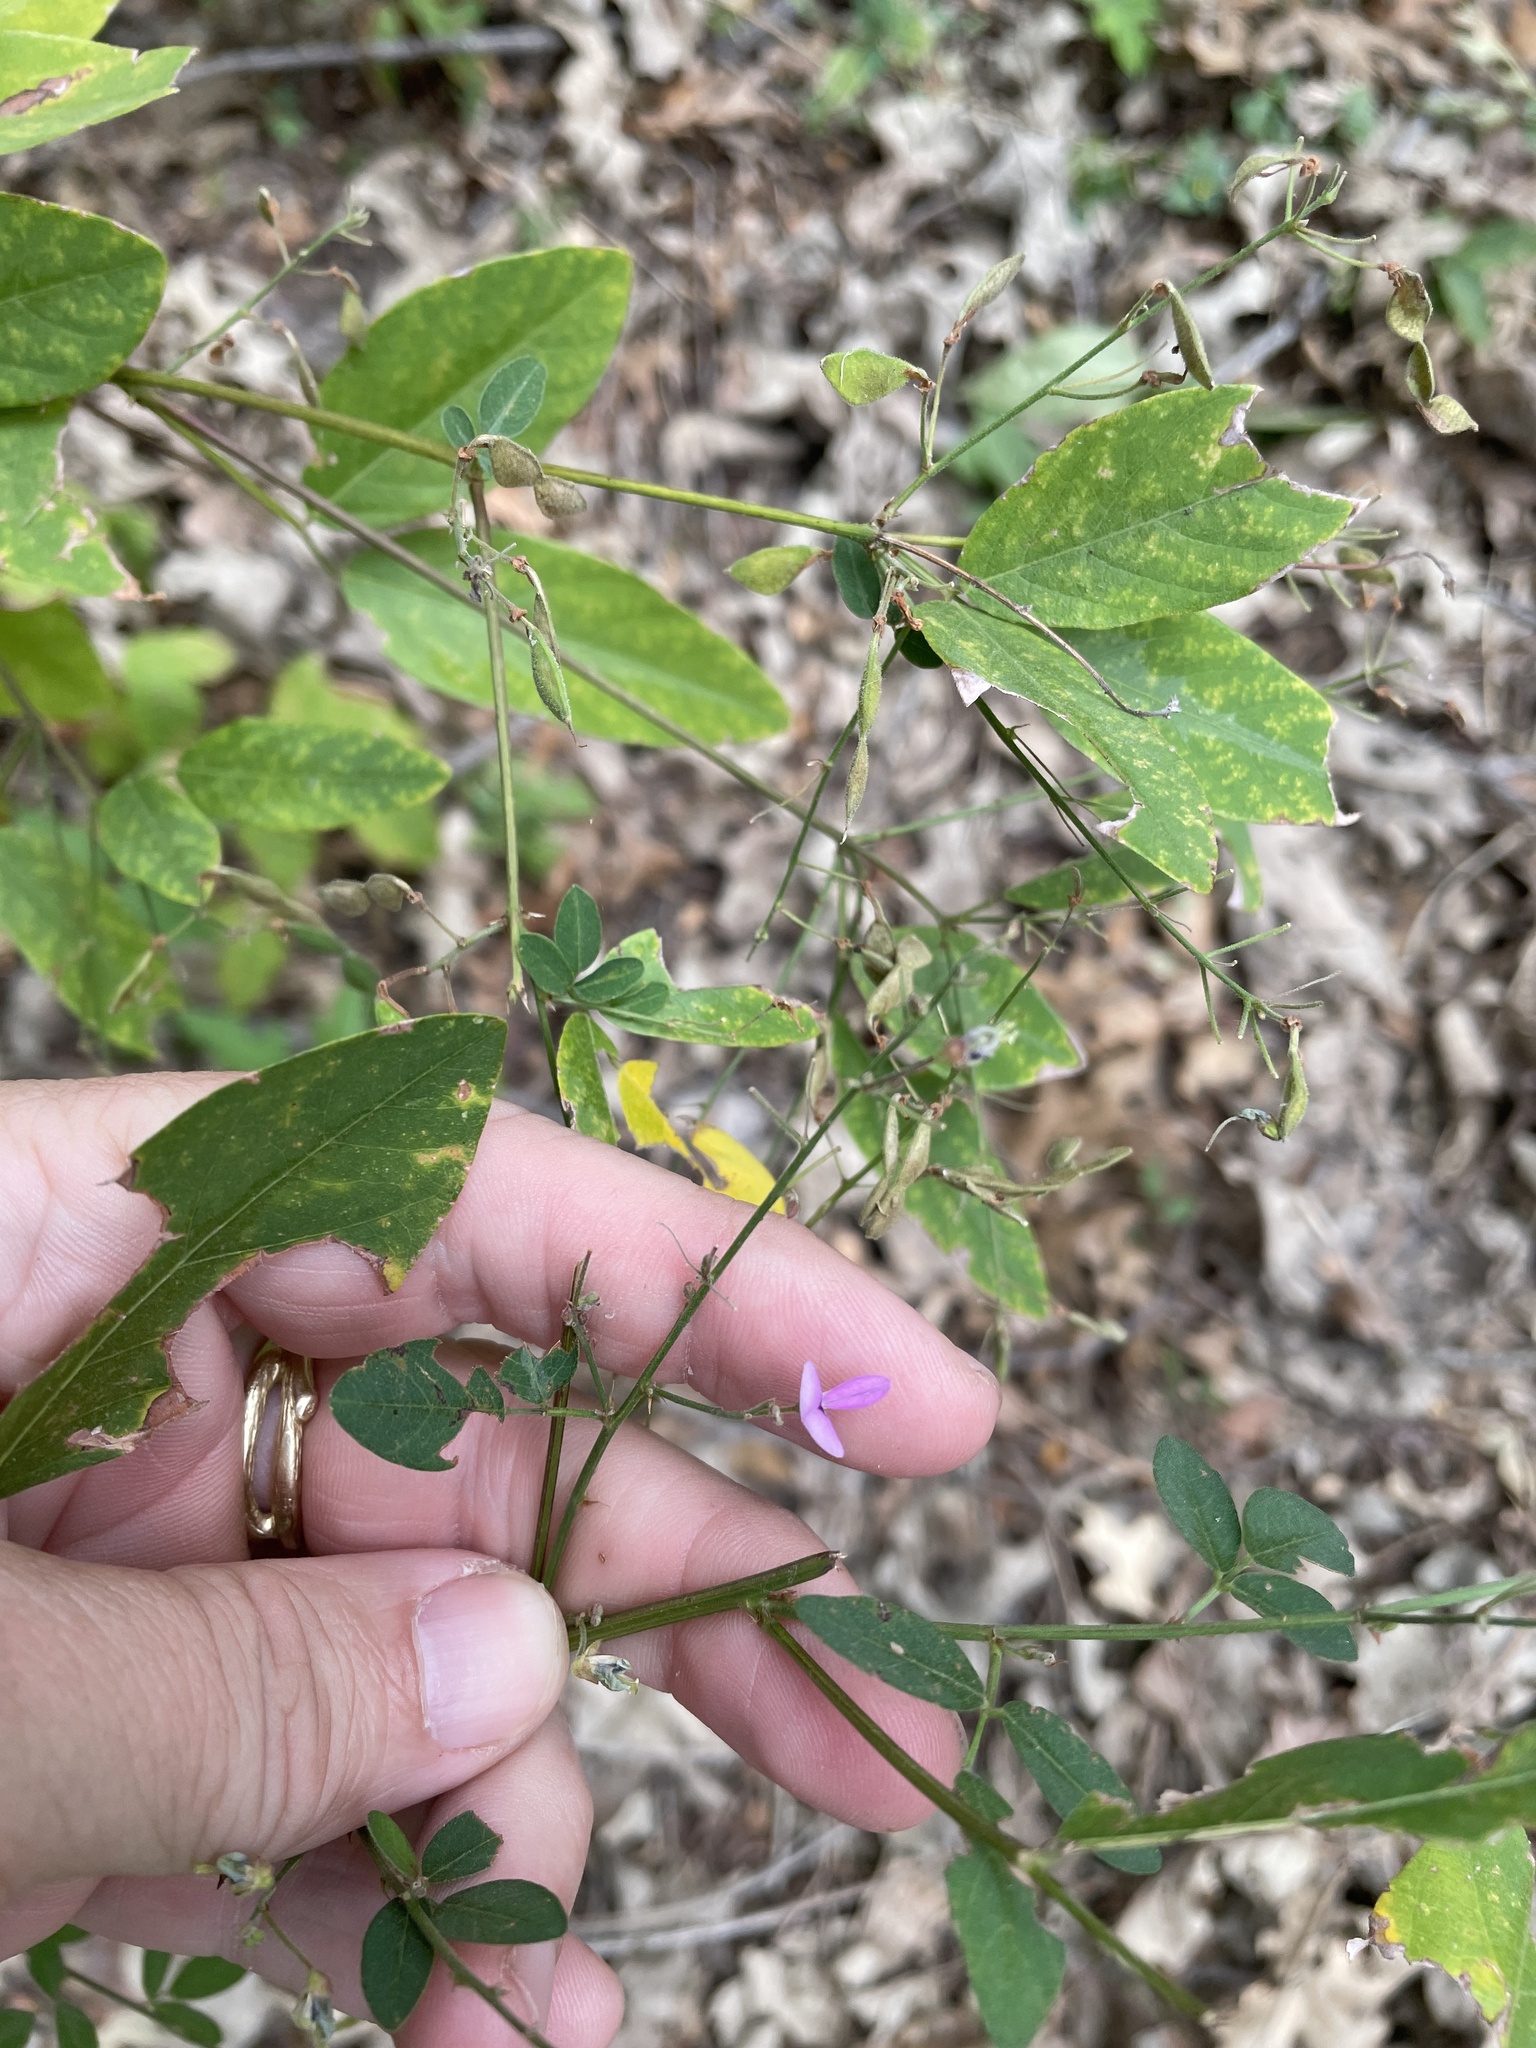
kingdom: Plantae
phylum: Tracheophyta
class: Magnoliopsida
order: Fabales
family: Fabaceae
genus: Desmodium
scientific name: Desmodium paniculatum
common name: Panicled tick-clover
